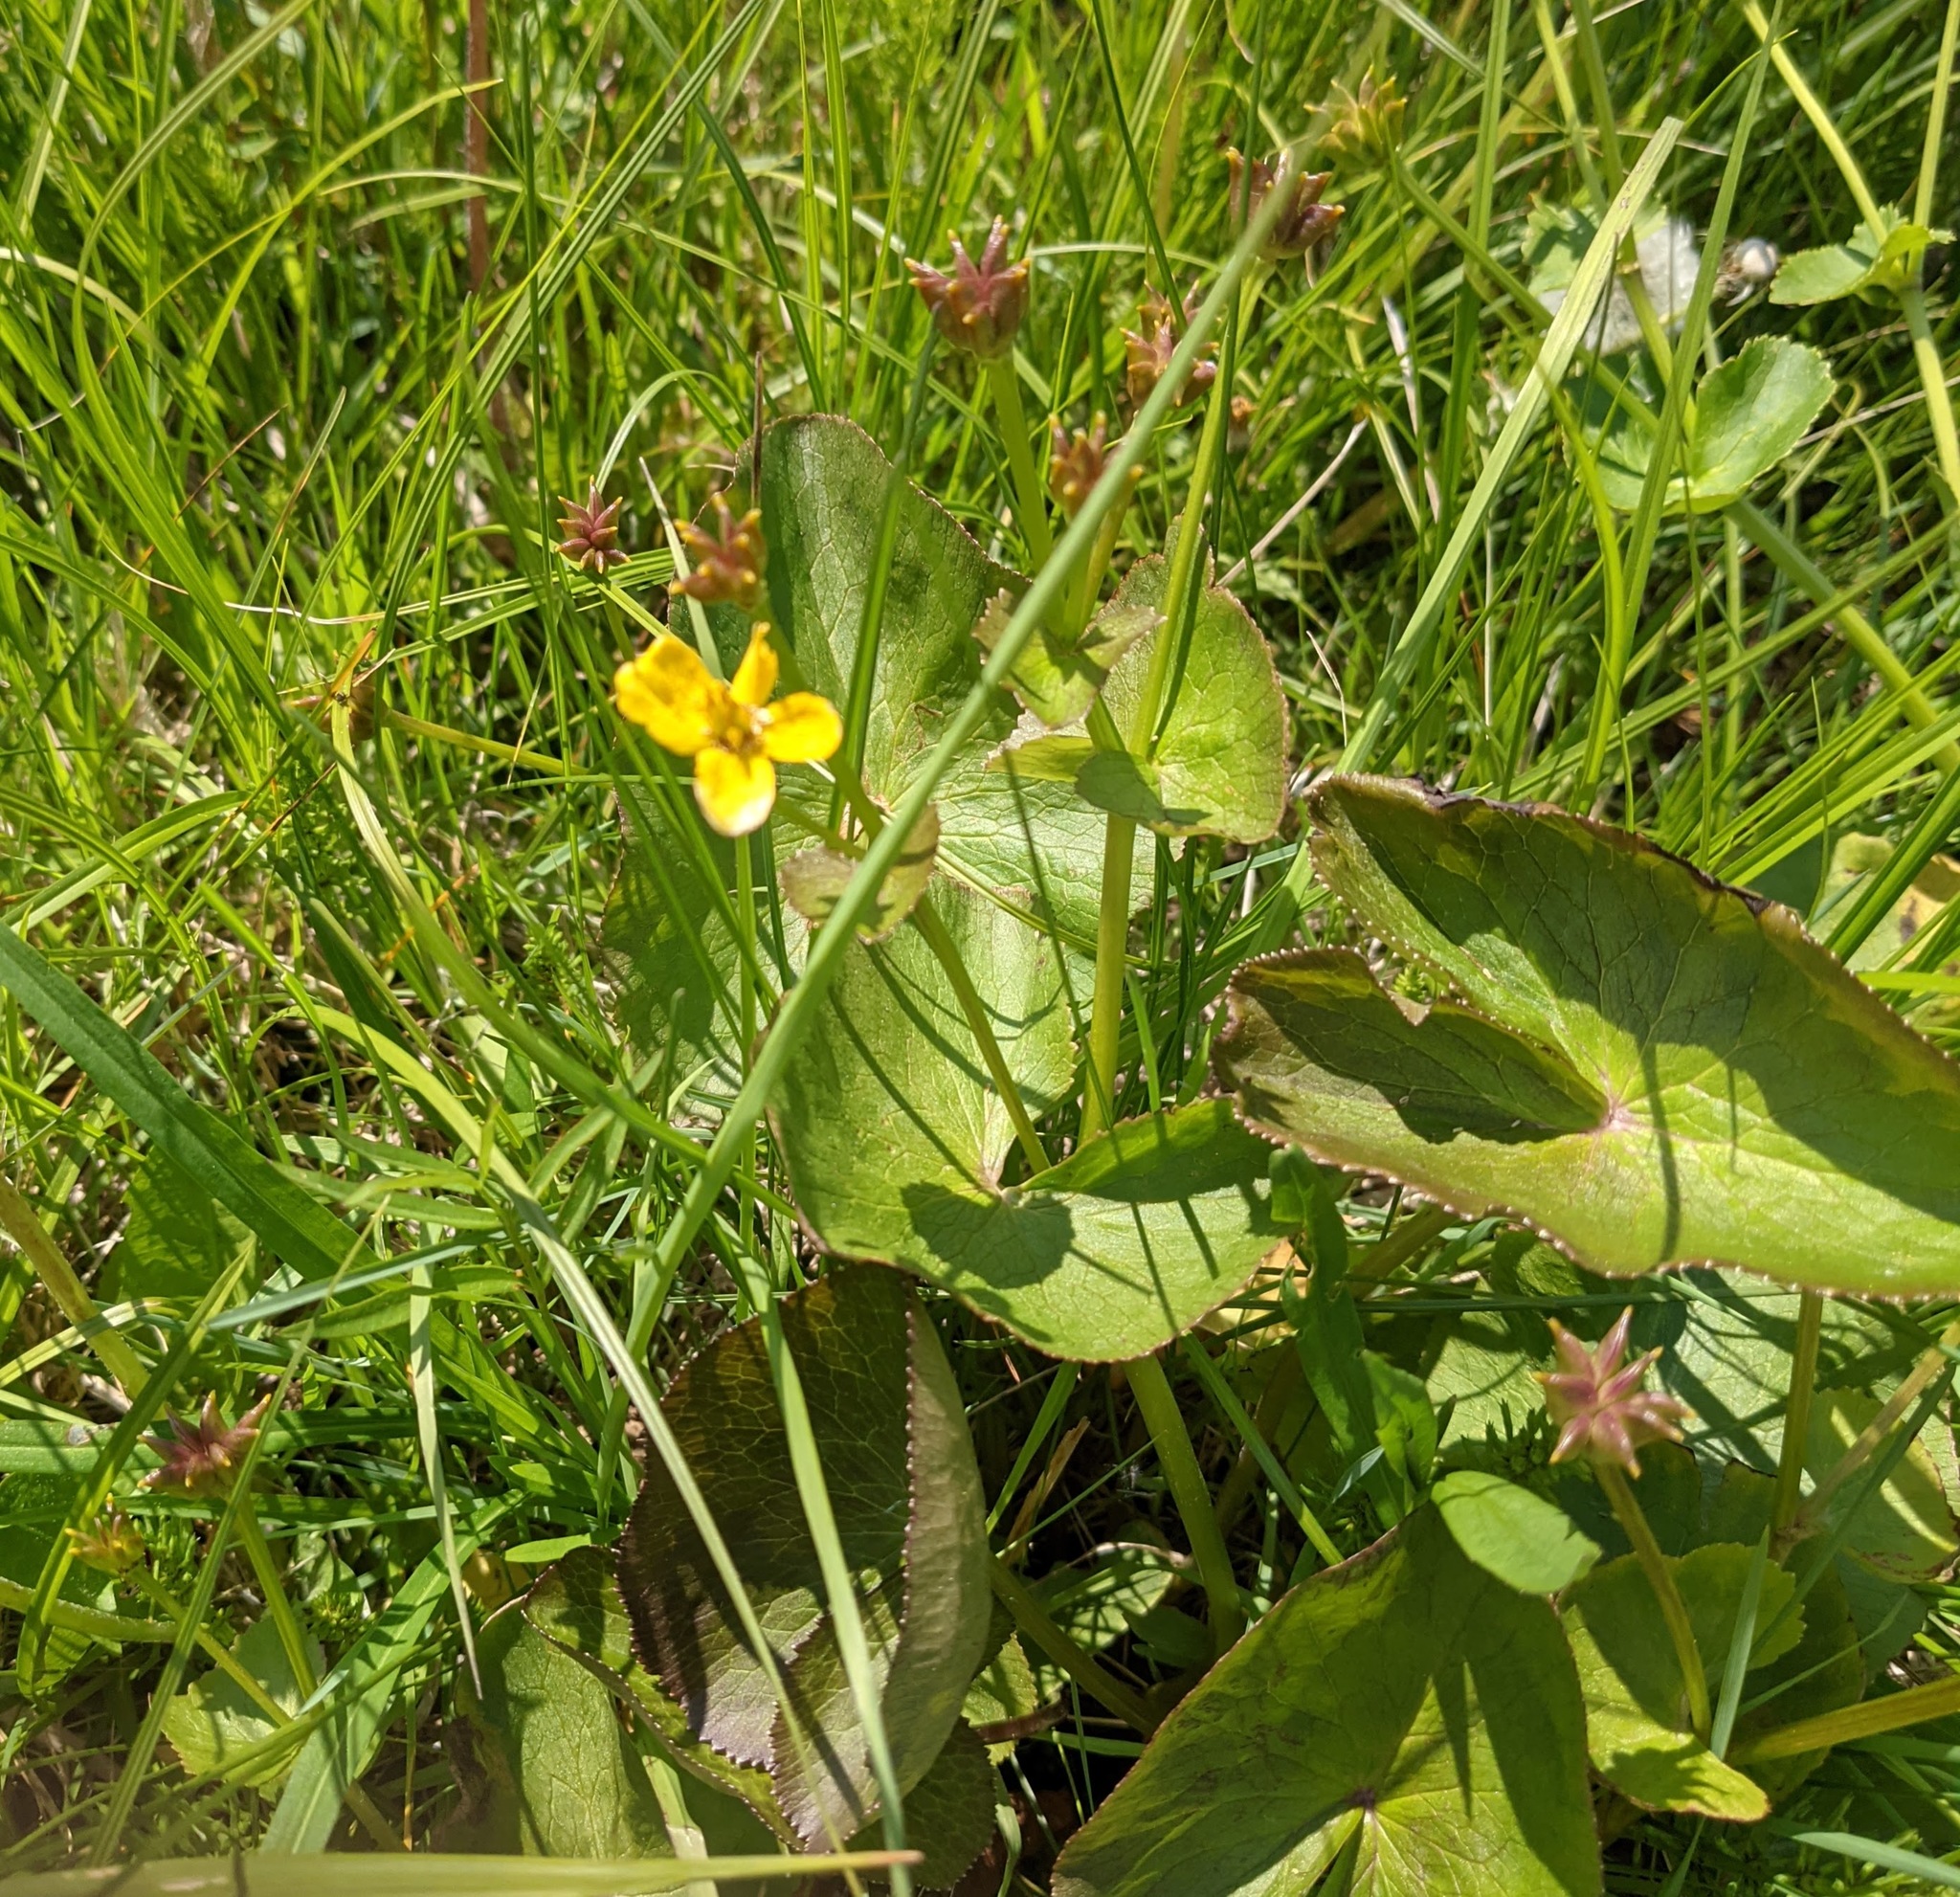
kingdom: Plantae
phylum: Tracheophyta
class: Magnoliopsida
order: Ranunculales
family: Ranunculaceae
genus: Caltha
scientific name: Caltha palustris
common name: Marsh marigold
